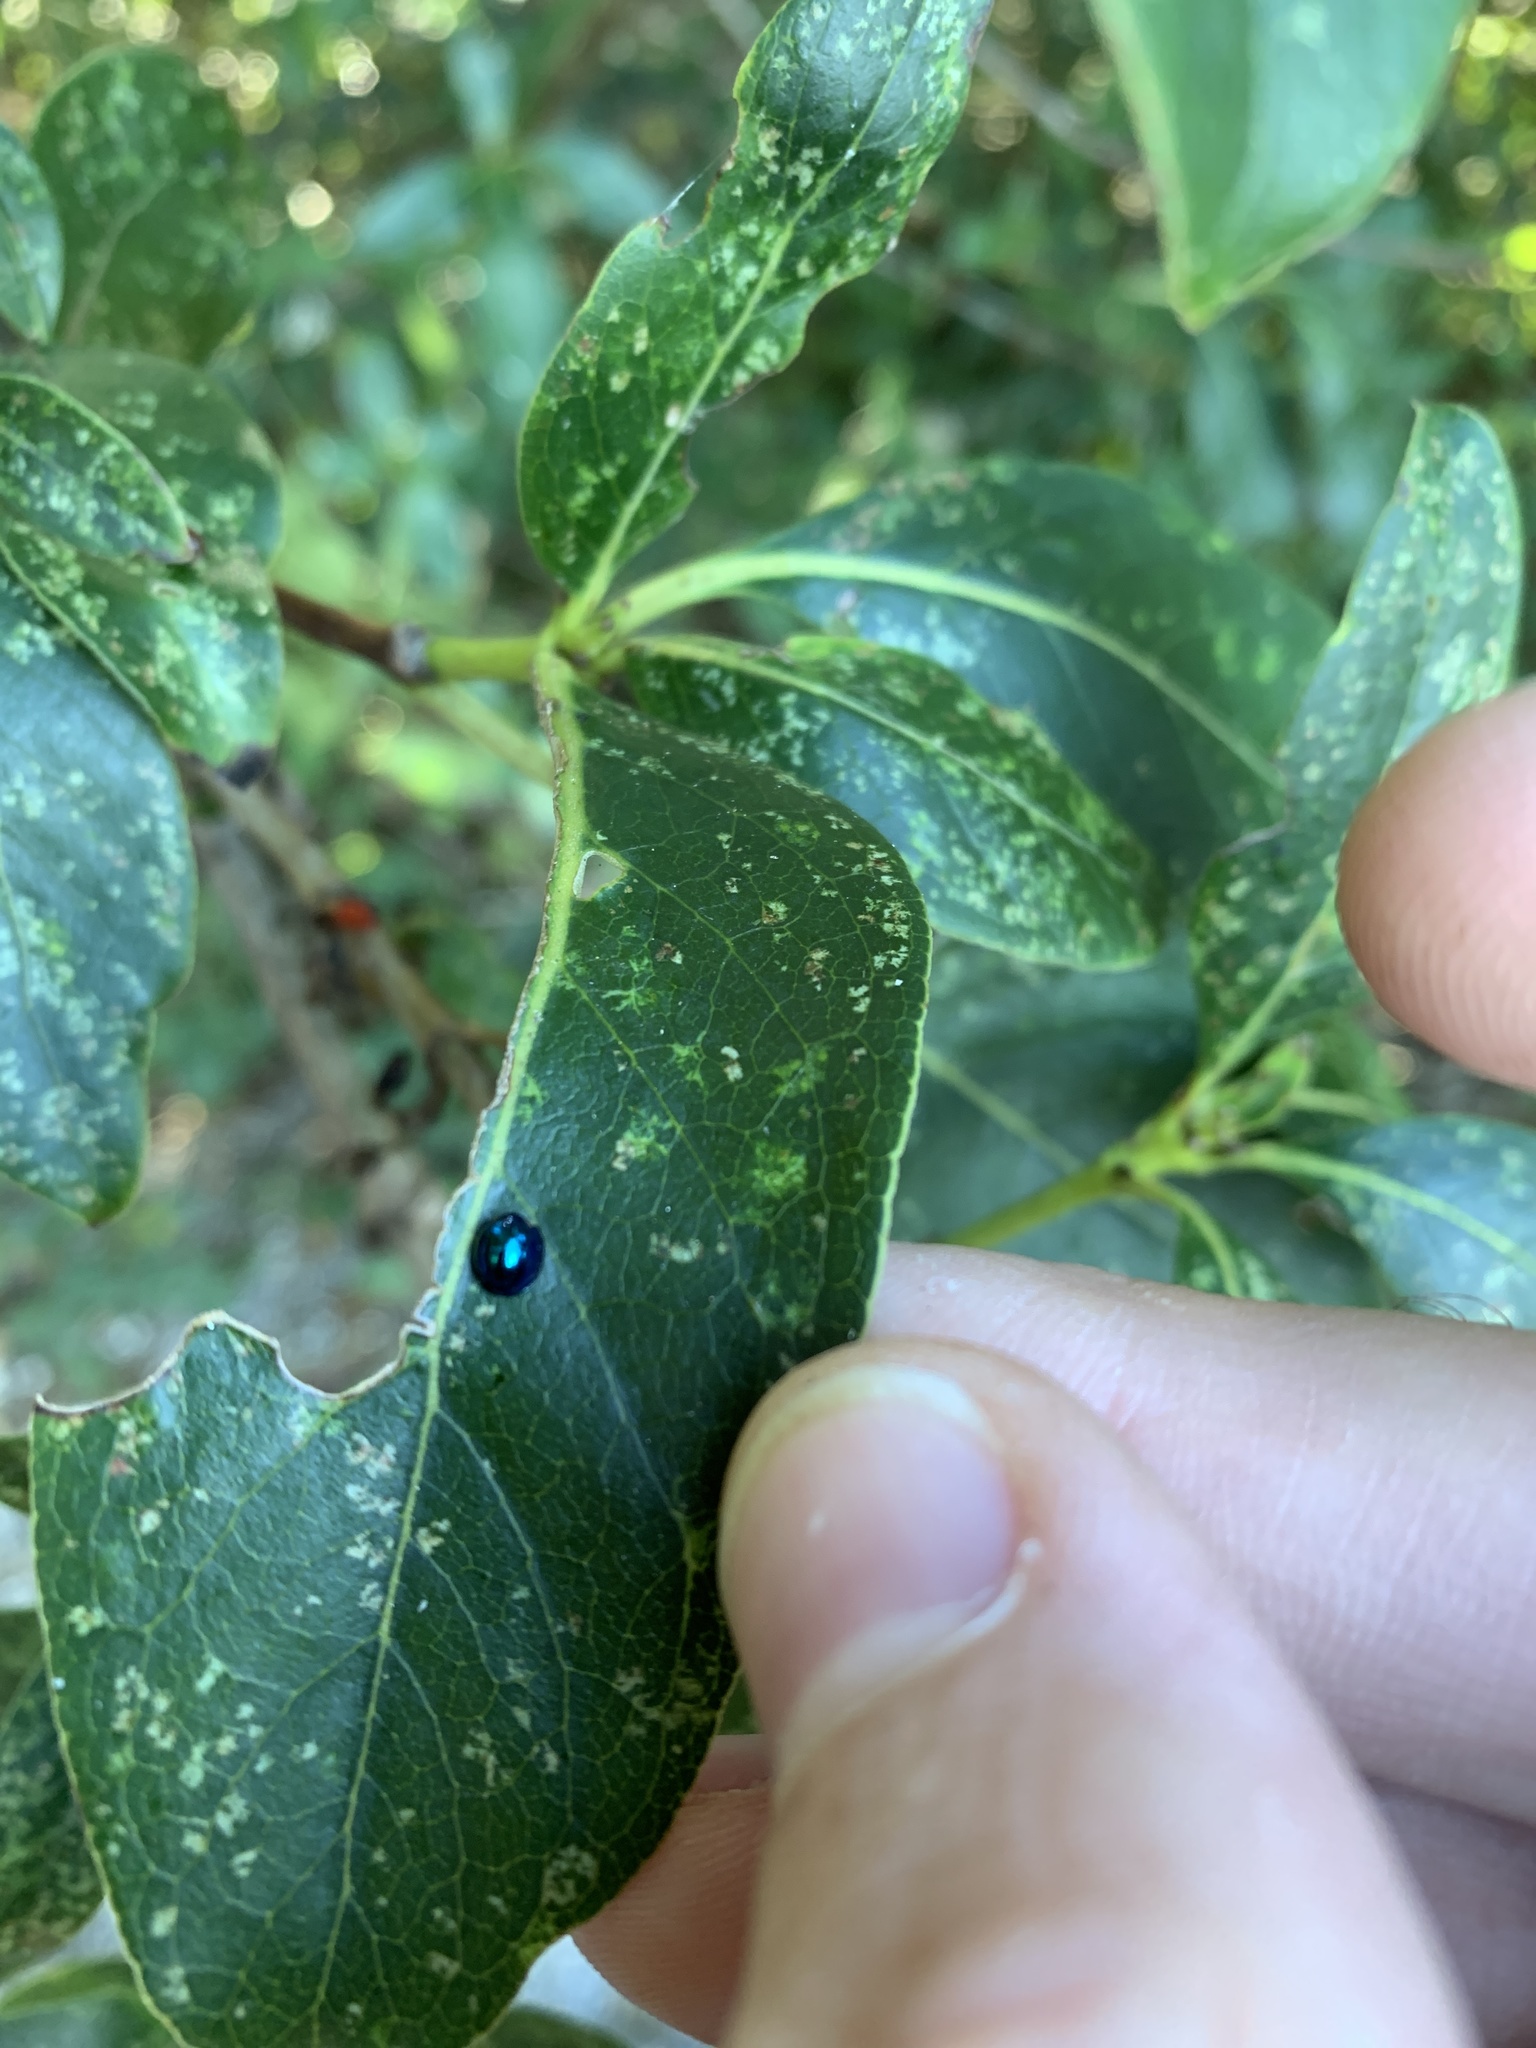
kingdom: Animalia
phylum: Arthropoda
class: Insecta
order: Coleoptera
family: Coccinellidae
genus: Halmus
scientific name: Halmus chalybeus
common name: Steel blue ladybird beetle
